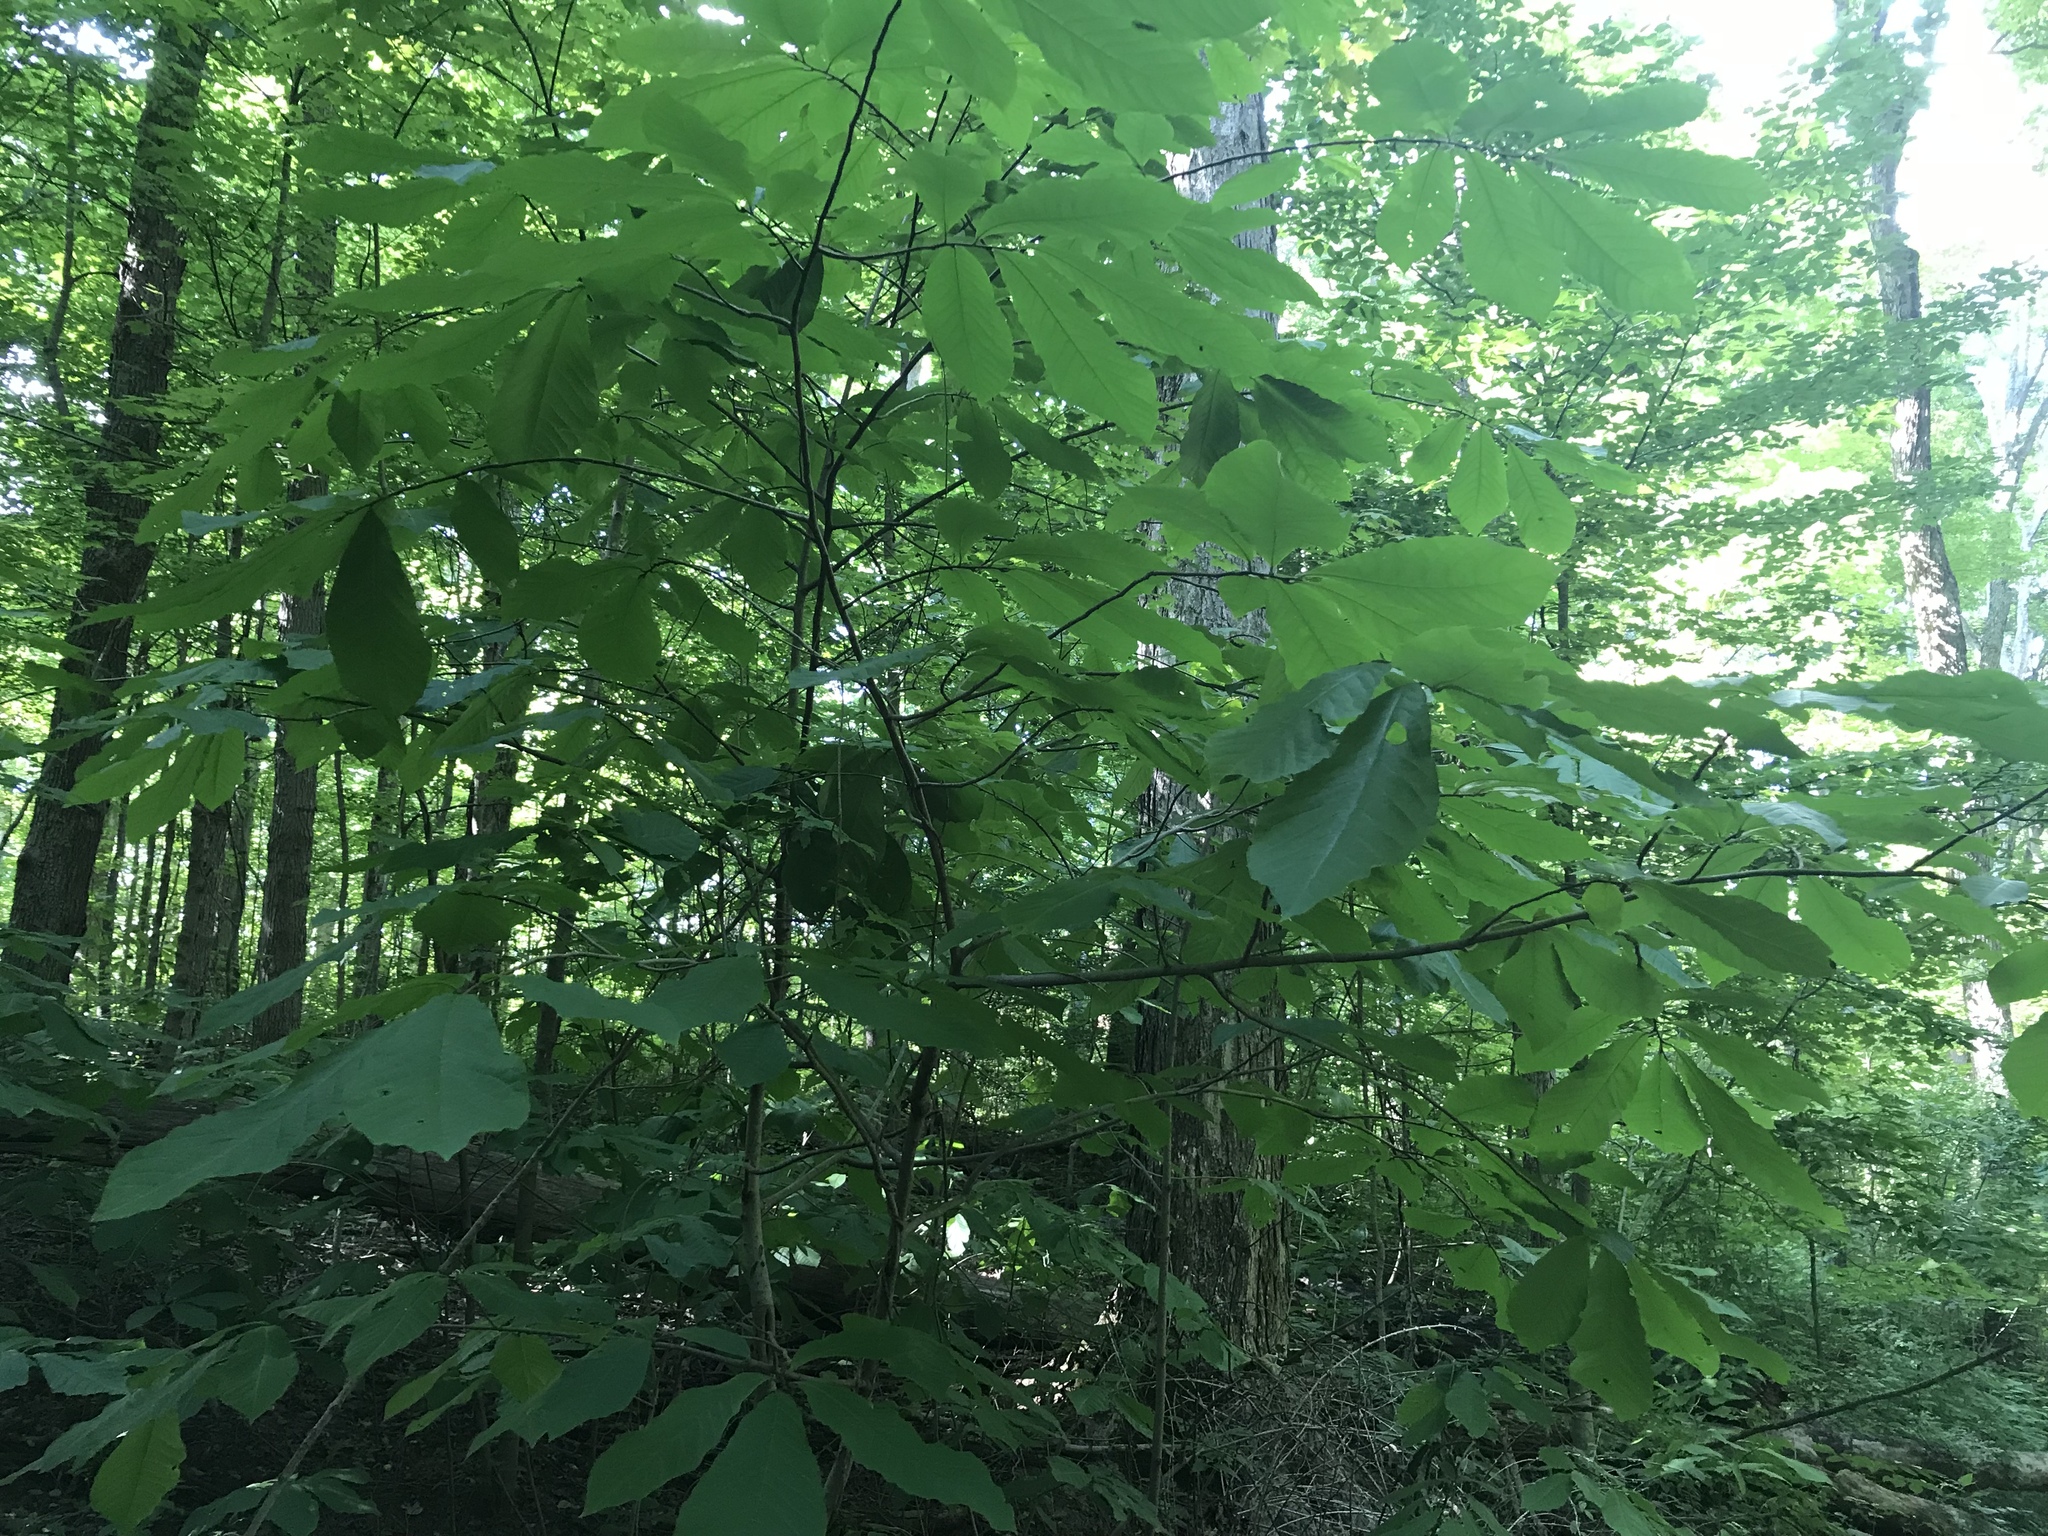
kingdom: Plantae
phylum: Tracheophyta
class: Magnoliopsida
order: Magnoliales
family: Annonaceae
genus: Asimina
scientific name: Asimina triloba
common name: Dog-banana
